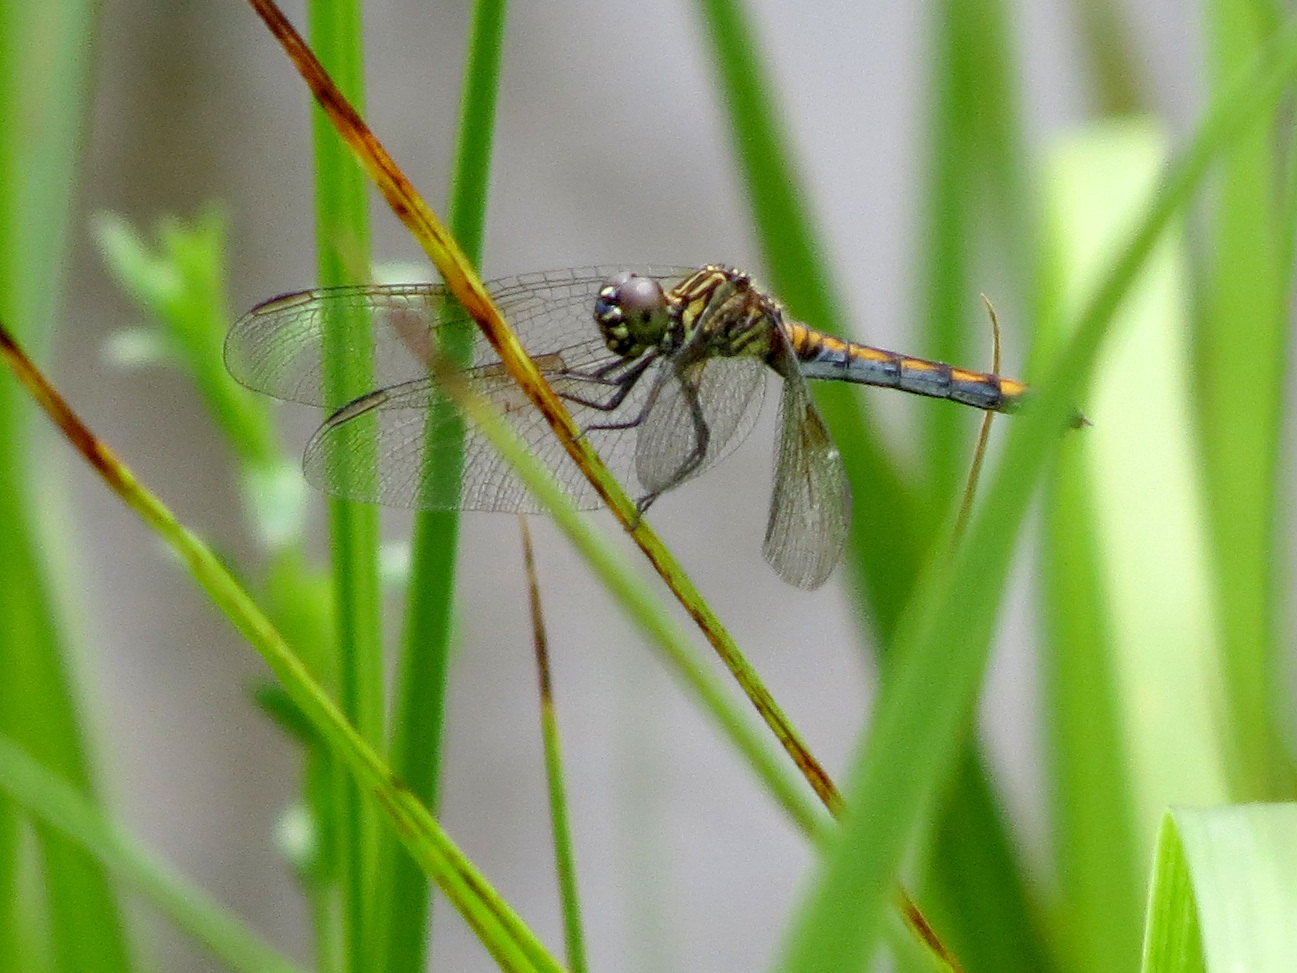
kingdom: Animalia
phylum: Arthropoda
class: Insecta
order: Odonata
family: Libellulidae
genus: Erythrodiplax
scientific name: Erythrodiplax berenice
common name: Seaside dragonlet
